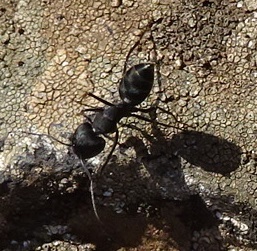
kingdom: Animalia
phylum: Arthropoda
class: Insecta
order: Hymenoptera
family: Formicidae
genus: Camponotus
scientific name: Camponotus feai
